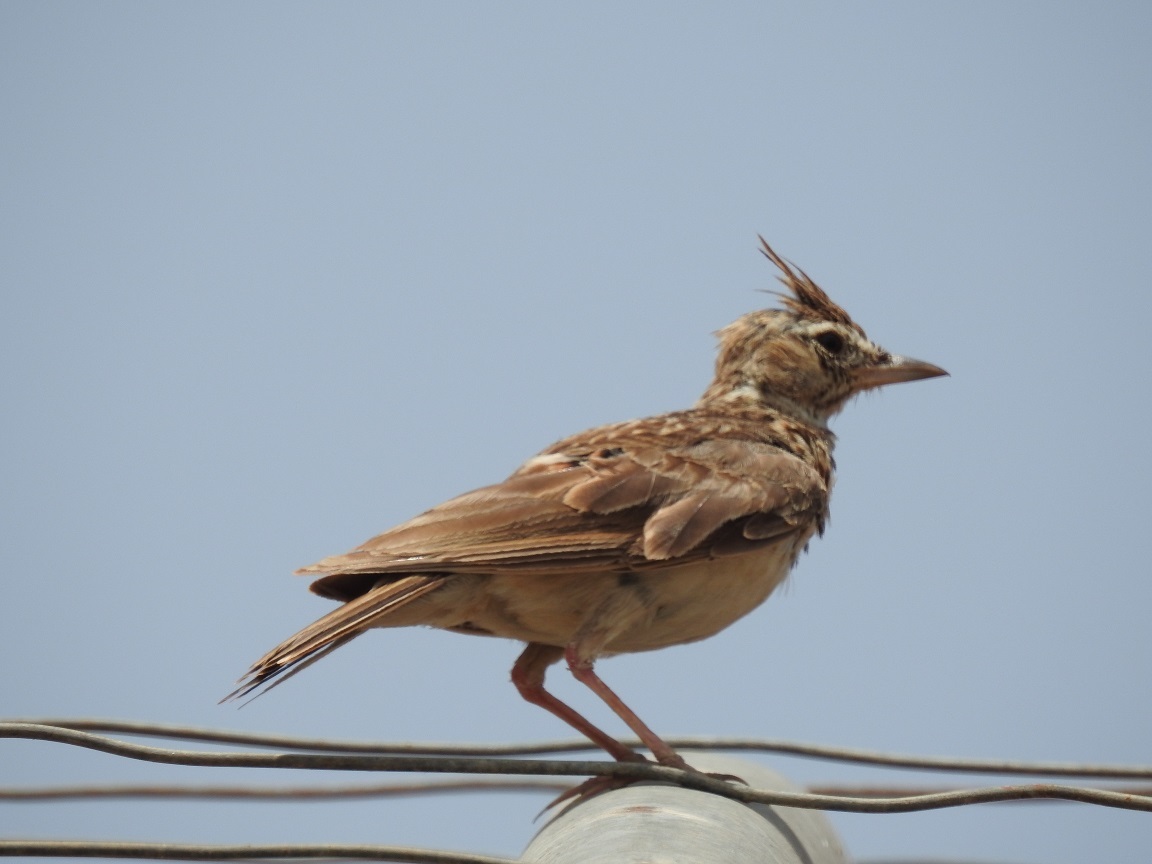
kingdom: Animalia
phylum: Chordata
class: Aves
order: Passeriformes
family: Alaudidae
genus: Galerida
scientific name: Galerida cristata
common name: Crested lark
